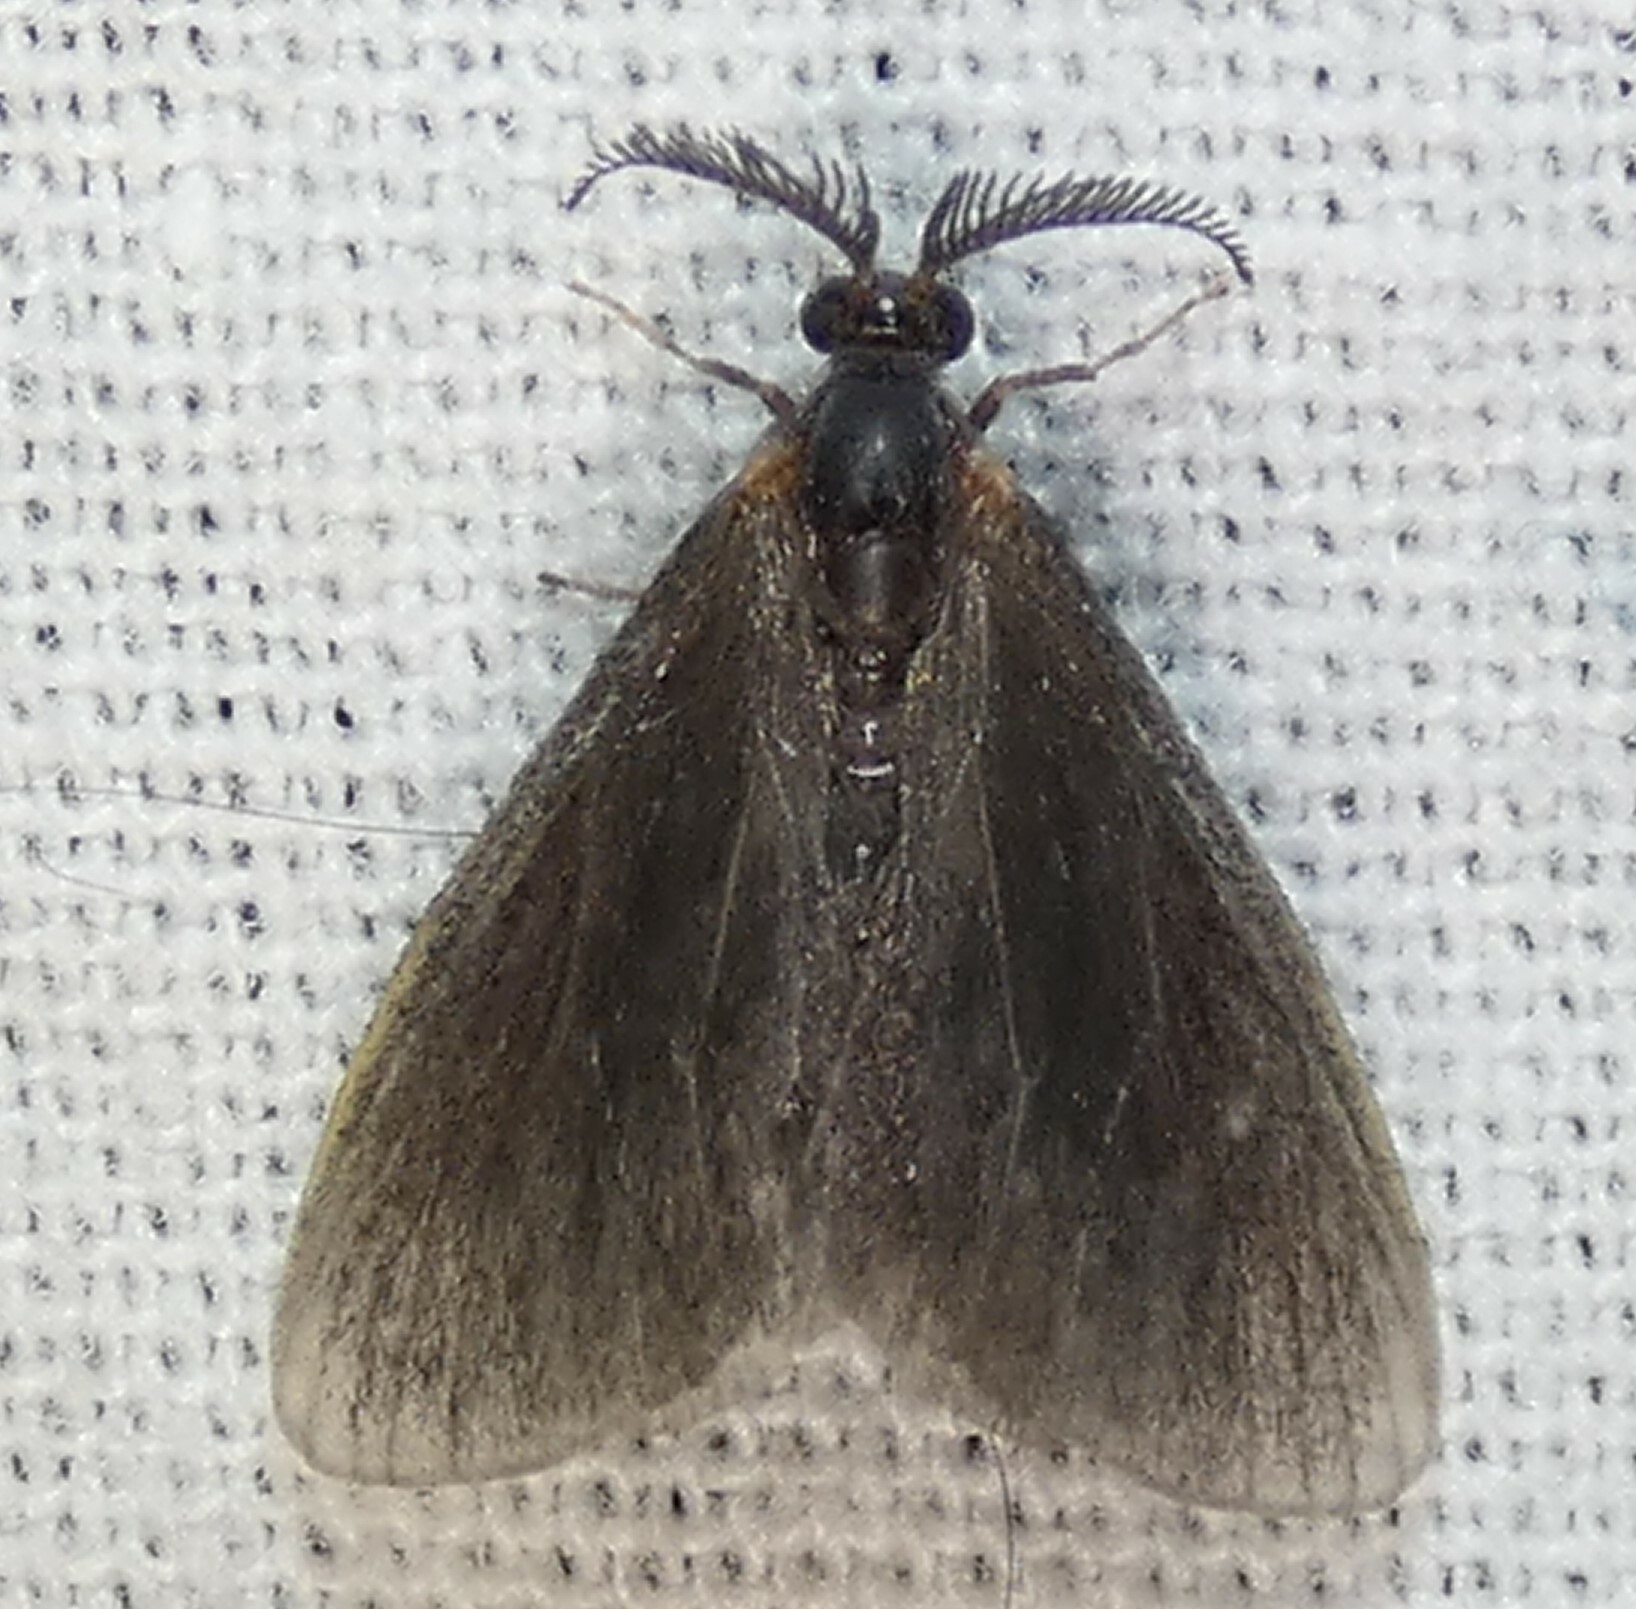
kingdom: Animalia
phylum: Arthropoda
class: Insecta
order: Lepidoptera
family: Psychidae
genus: Cryptothelea
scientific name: Cryptothelea gloverii
